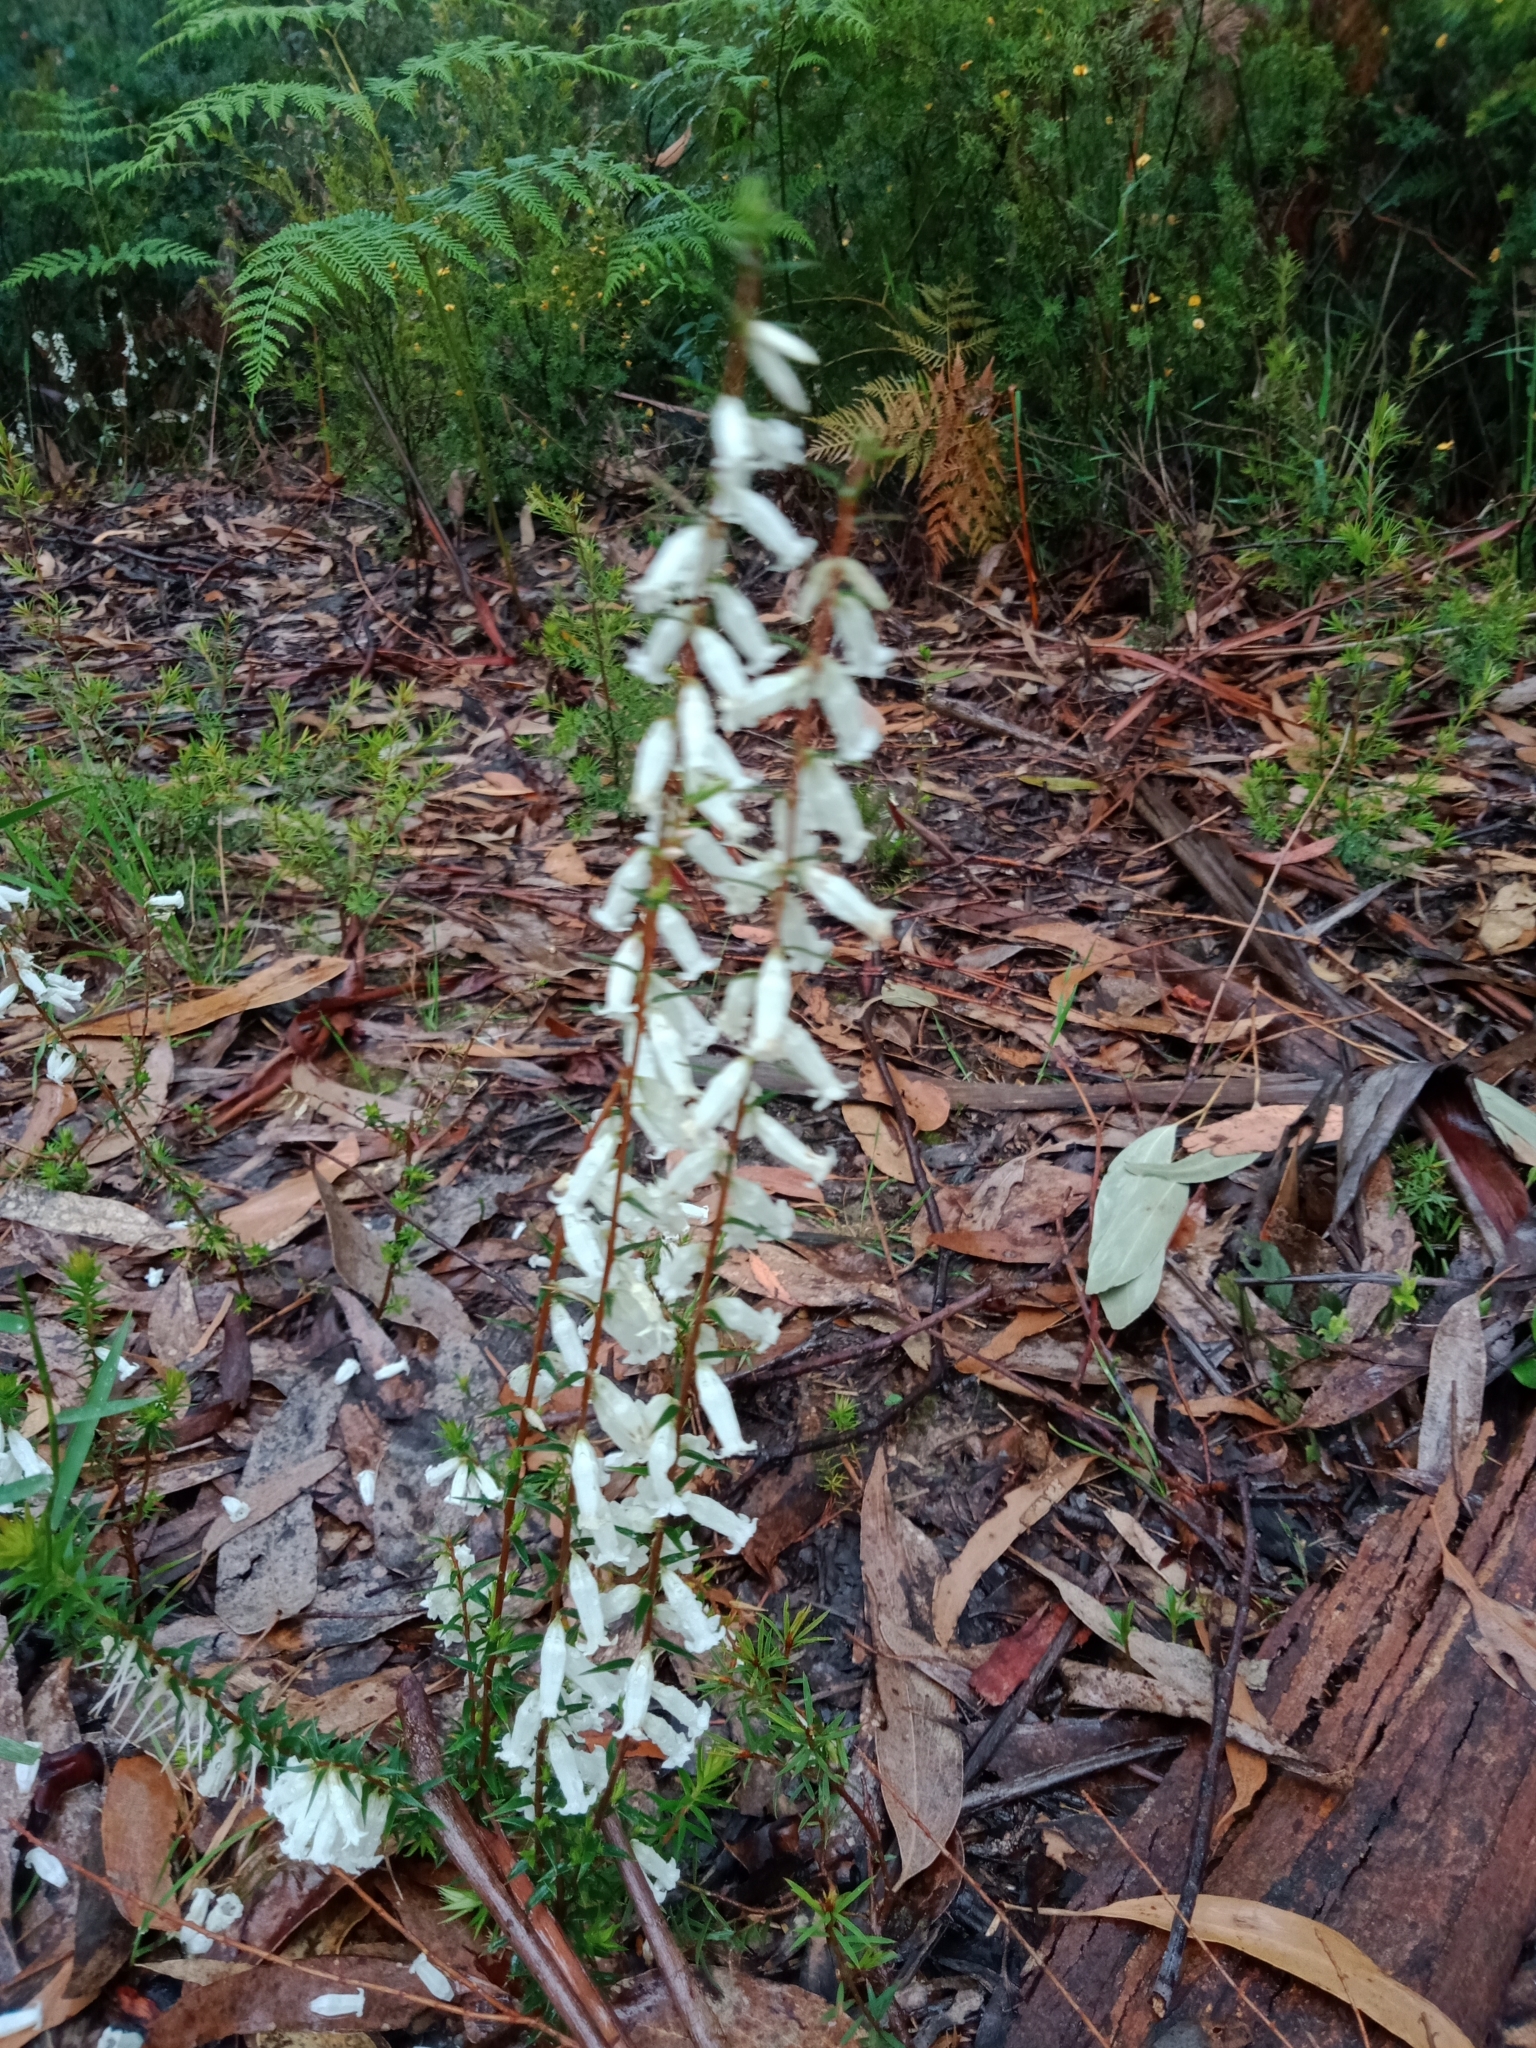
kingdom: Plantae
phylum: Tracheophyta
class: Magnoliopsida
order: Ericales
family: Ericaceae
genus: Epacris
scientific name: Epacris impressa
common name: Common-heath
